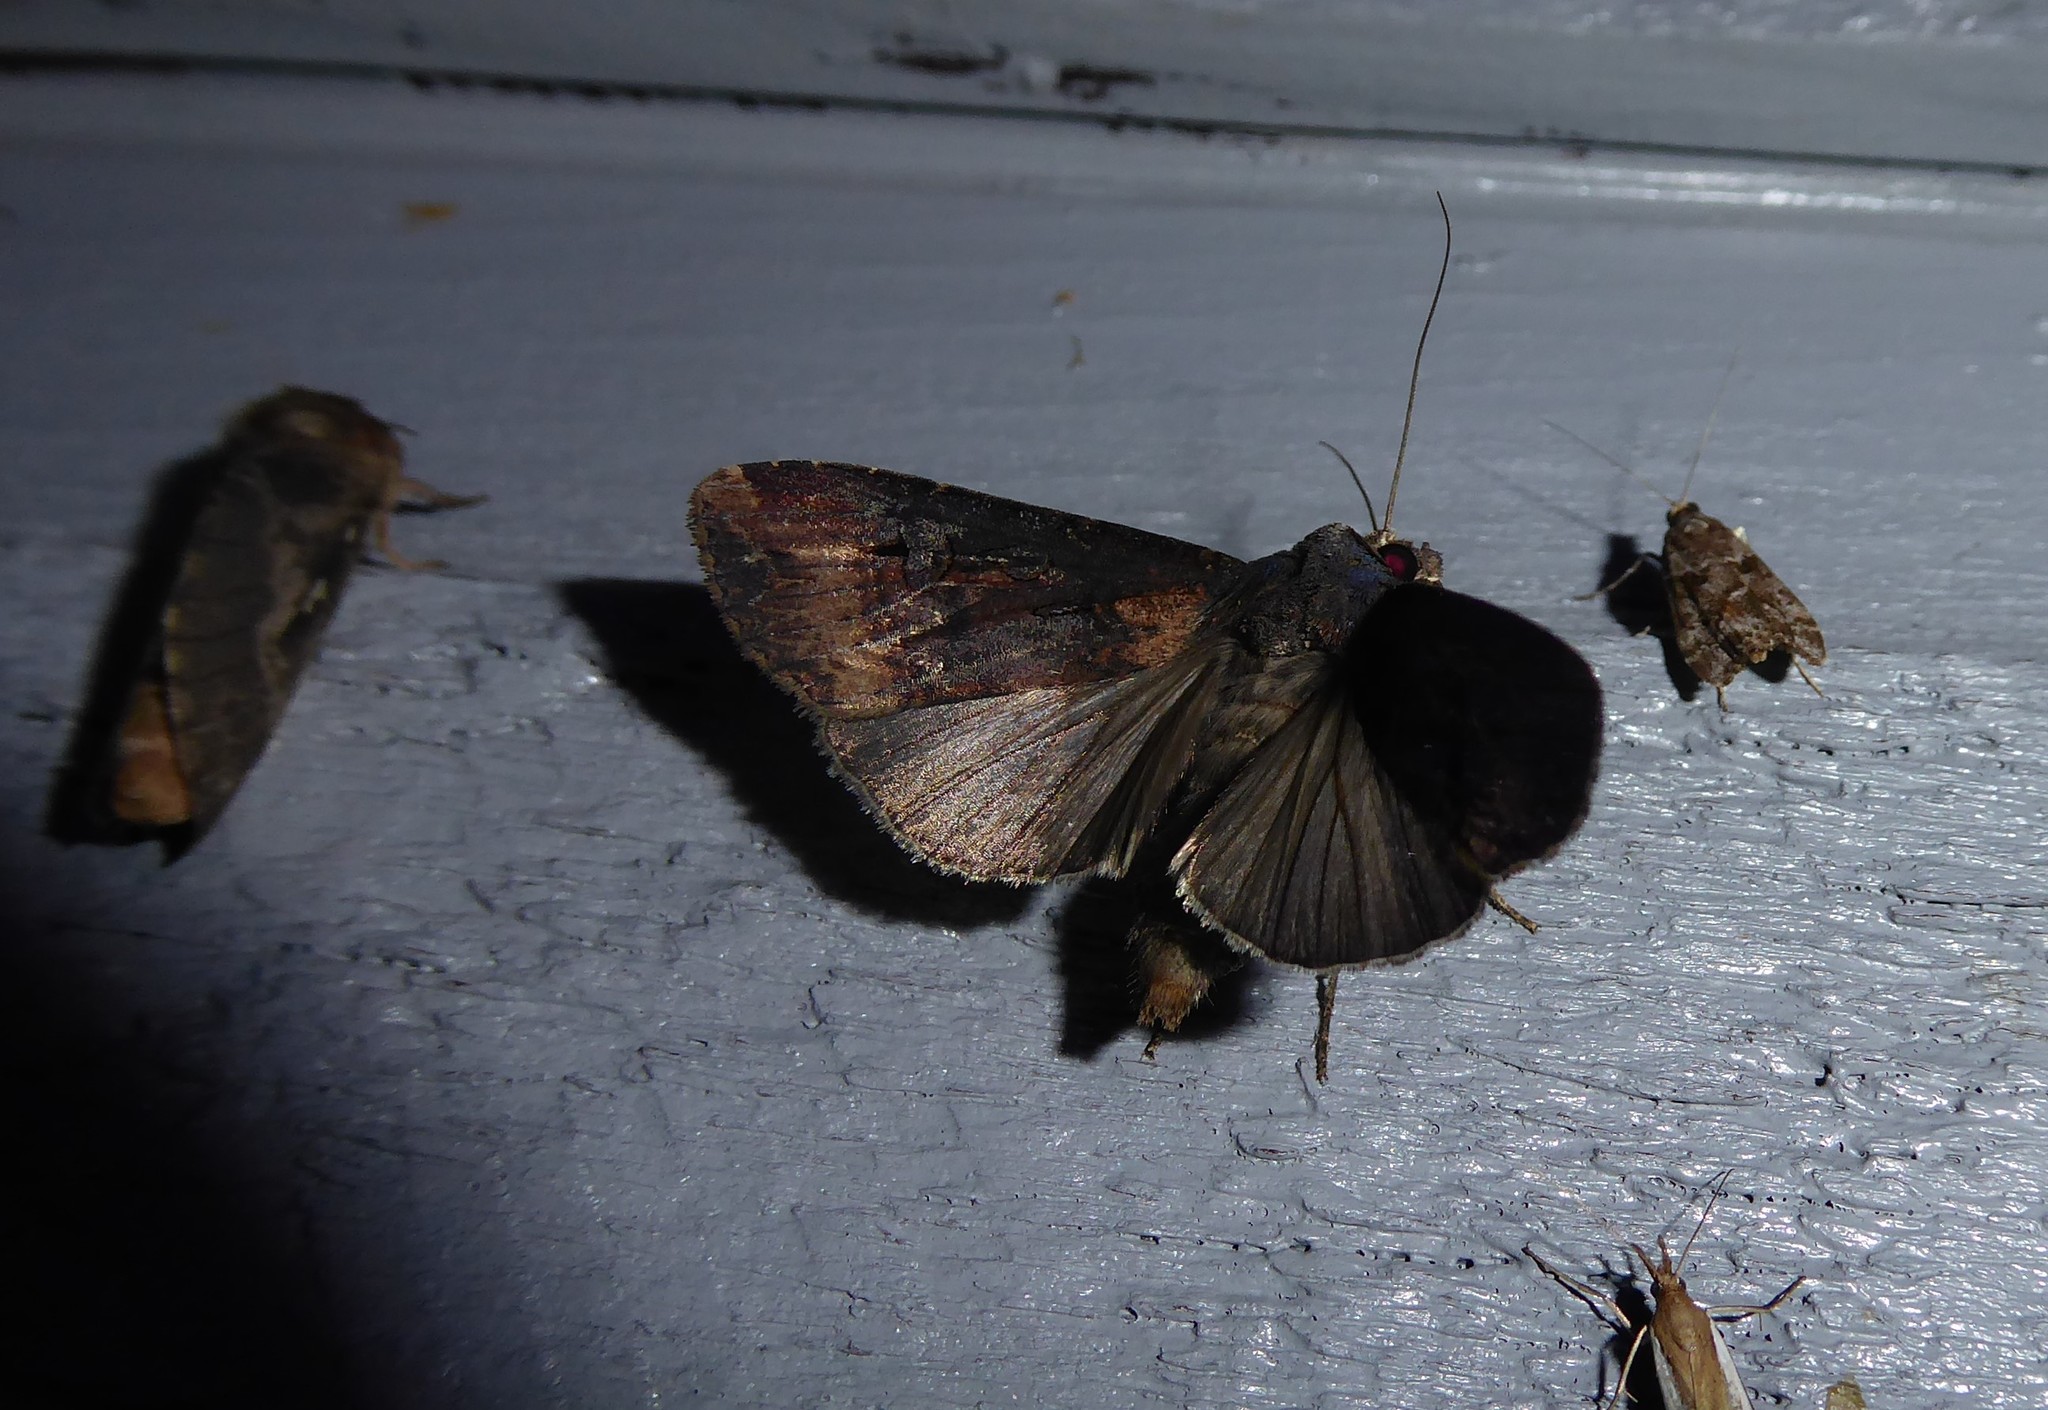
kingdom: Animalia
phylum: Arthropoda
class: Insecta
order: Lepidoptera
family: Noctuidae
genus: Agrotis
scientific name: Agrotis ipsilon
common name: Dark sword-grass
